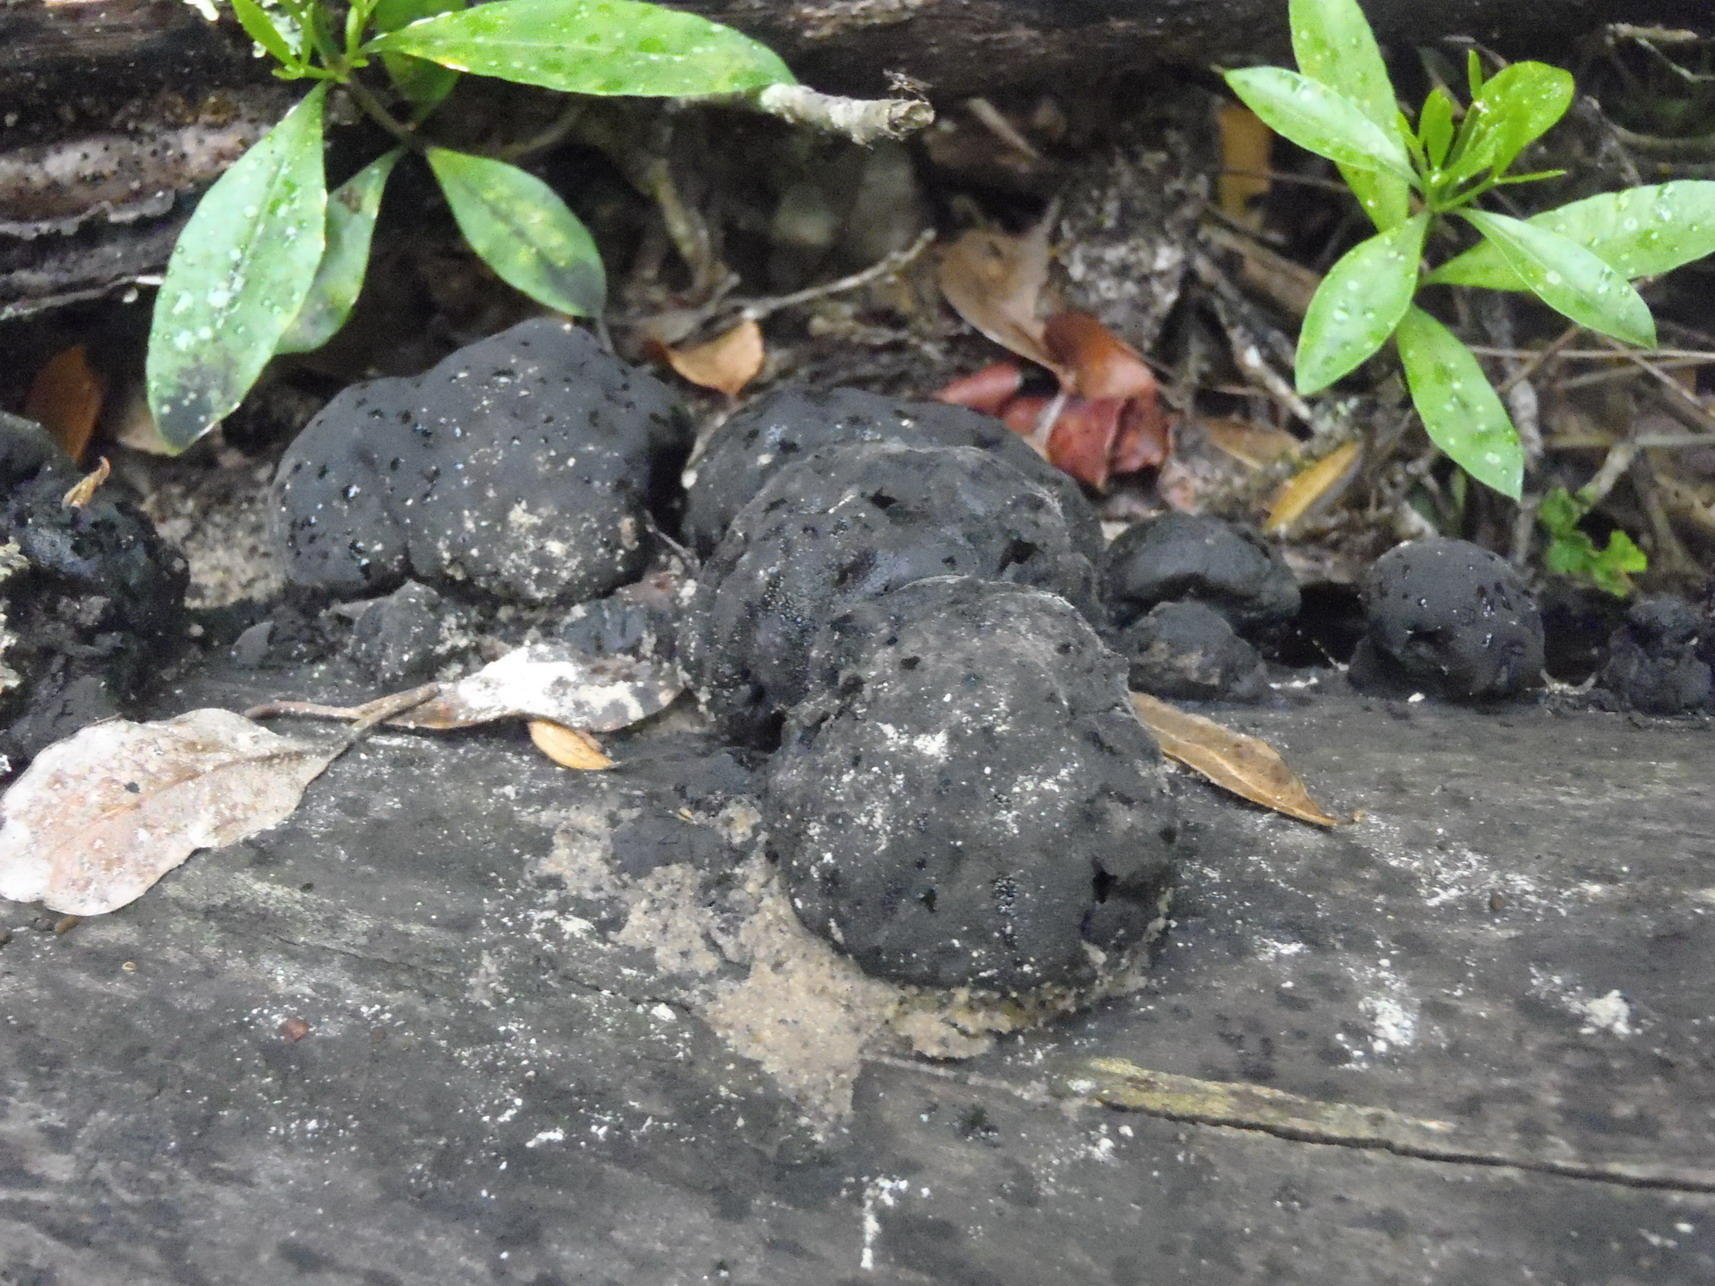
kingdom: Fungi
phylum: Ascomycota
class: Sordariomycetes
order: Xylariales
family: Hypoxylaceae
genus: Daldinia
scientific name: Daldinia concentrica
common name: Cramp balls
